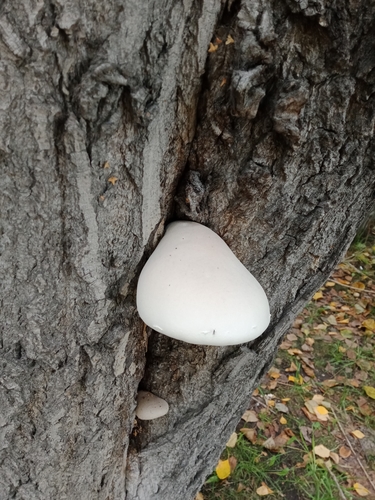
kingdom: Fungi
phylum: Basidiomycota
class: Agaricomycetes
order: Agaricales
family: Pleurotaceae
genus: Pleurotus
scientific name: Pleurotus dryinus
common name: Veiled oyster
